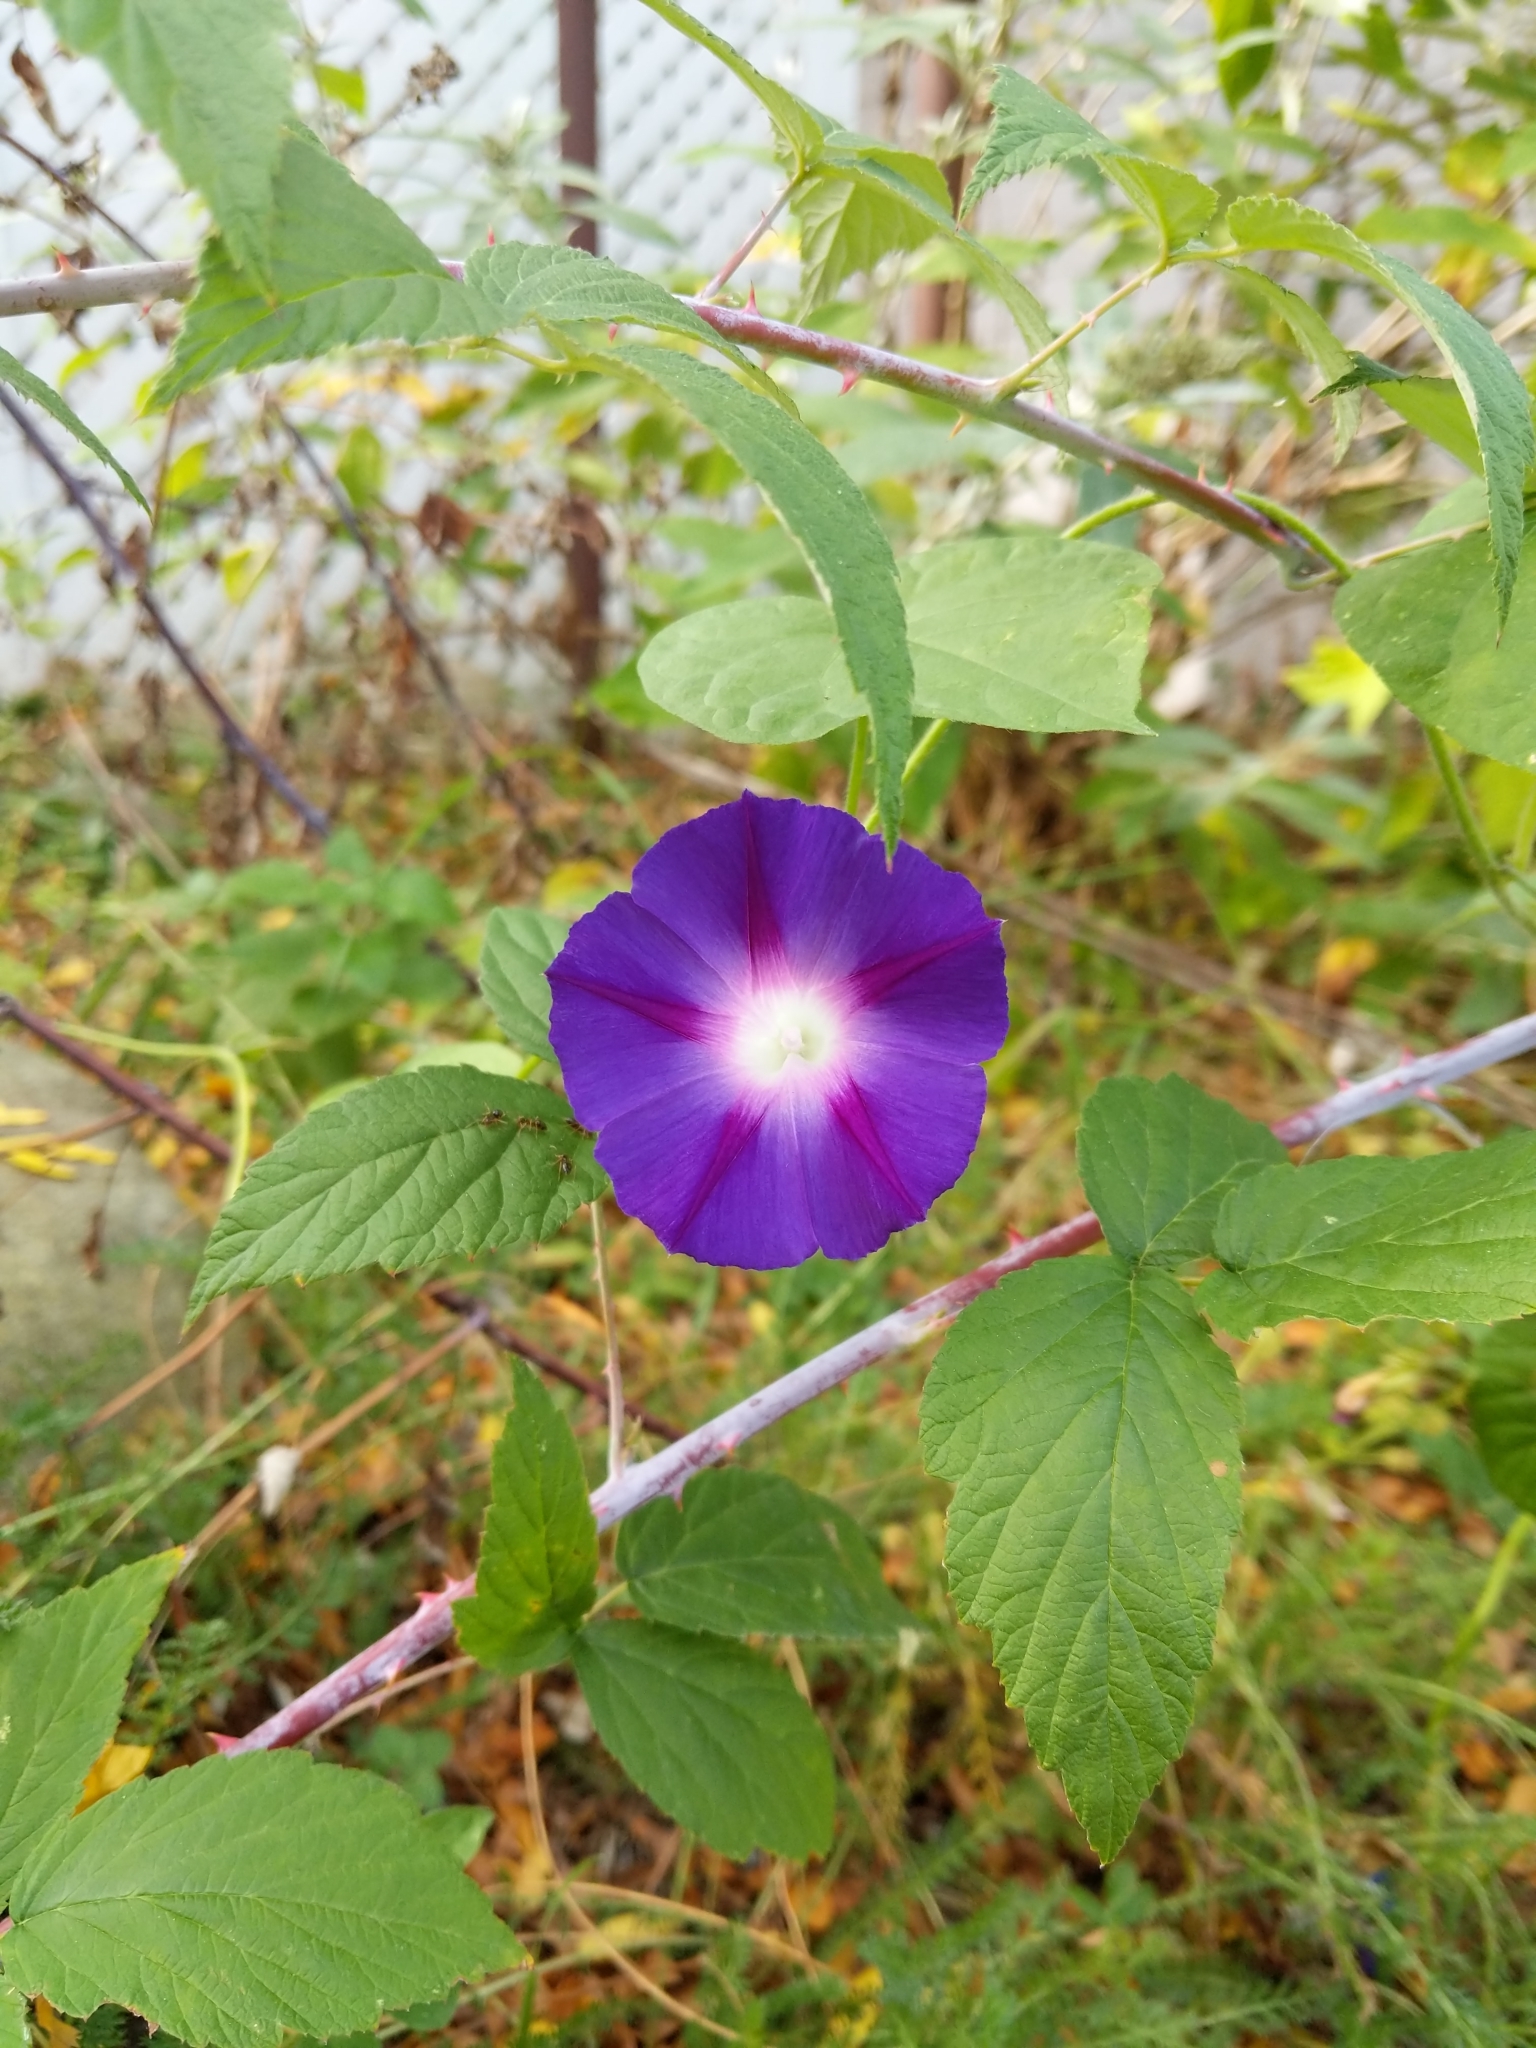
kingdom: Plantae
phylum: Tracheophyta
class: Magnoliopsida
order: Solanales
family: Convolvulaceae
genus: Ipomoea
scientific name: Ipomoea purpurea
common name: Common morning-glory
